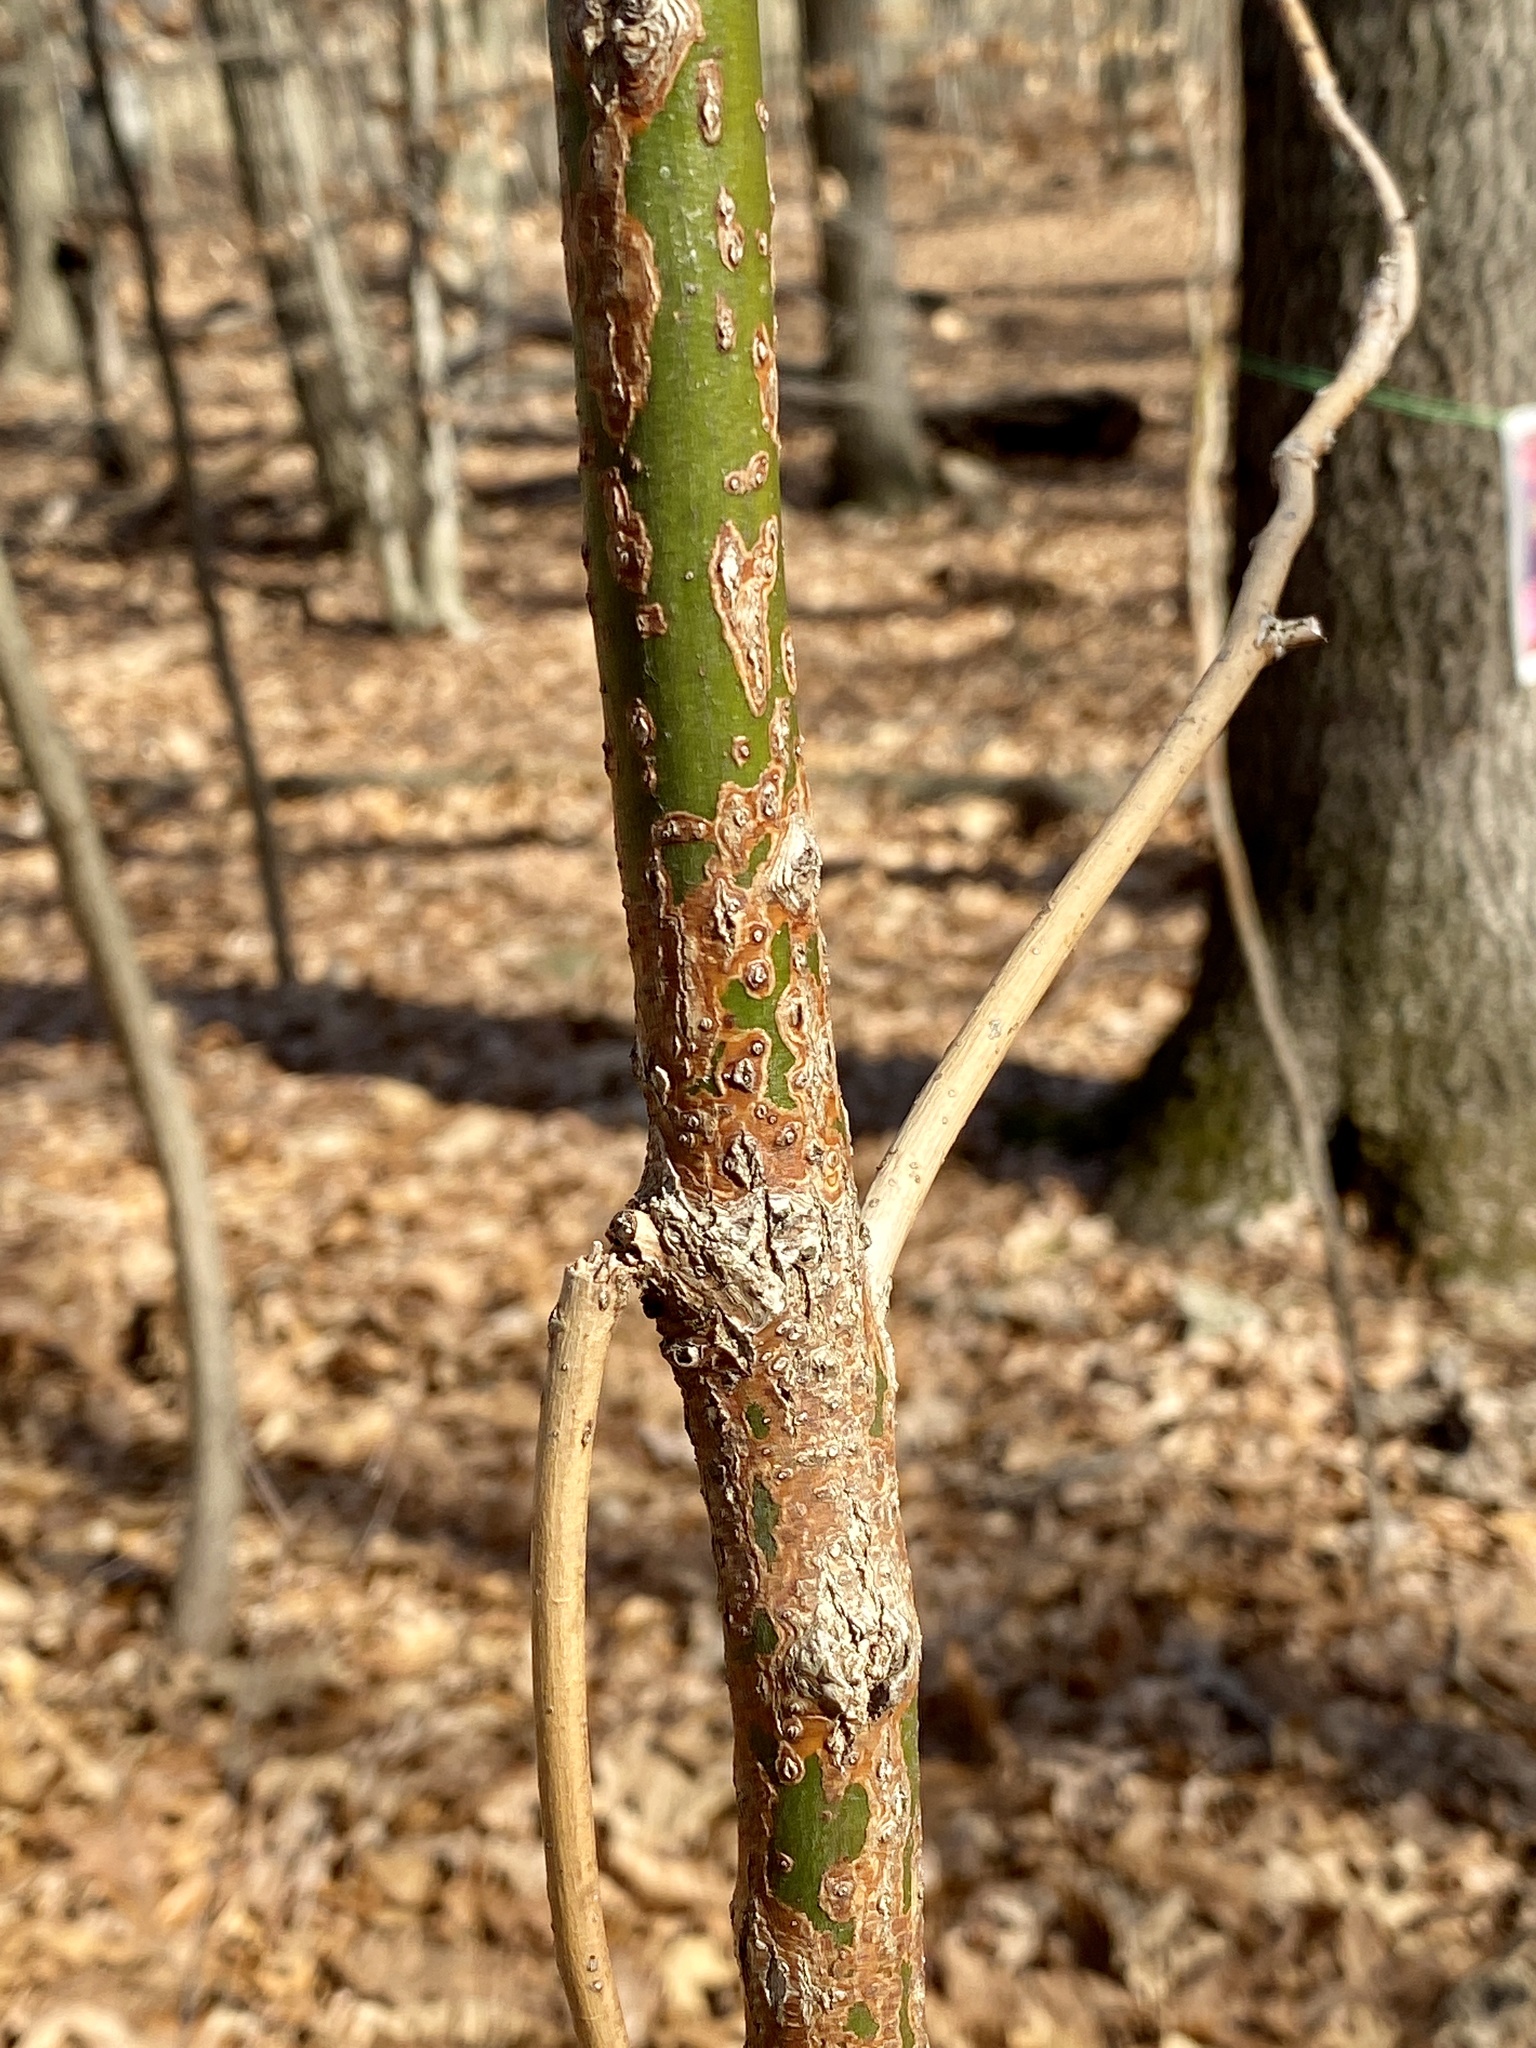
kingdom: Plantae
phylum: Tracheophyta
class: Magnoliopsida
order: Laurales
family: Lauraceae
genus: Sassafras
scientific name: Sassafras albidum
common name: Sassafras
